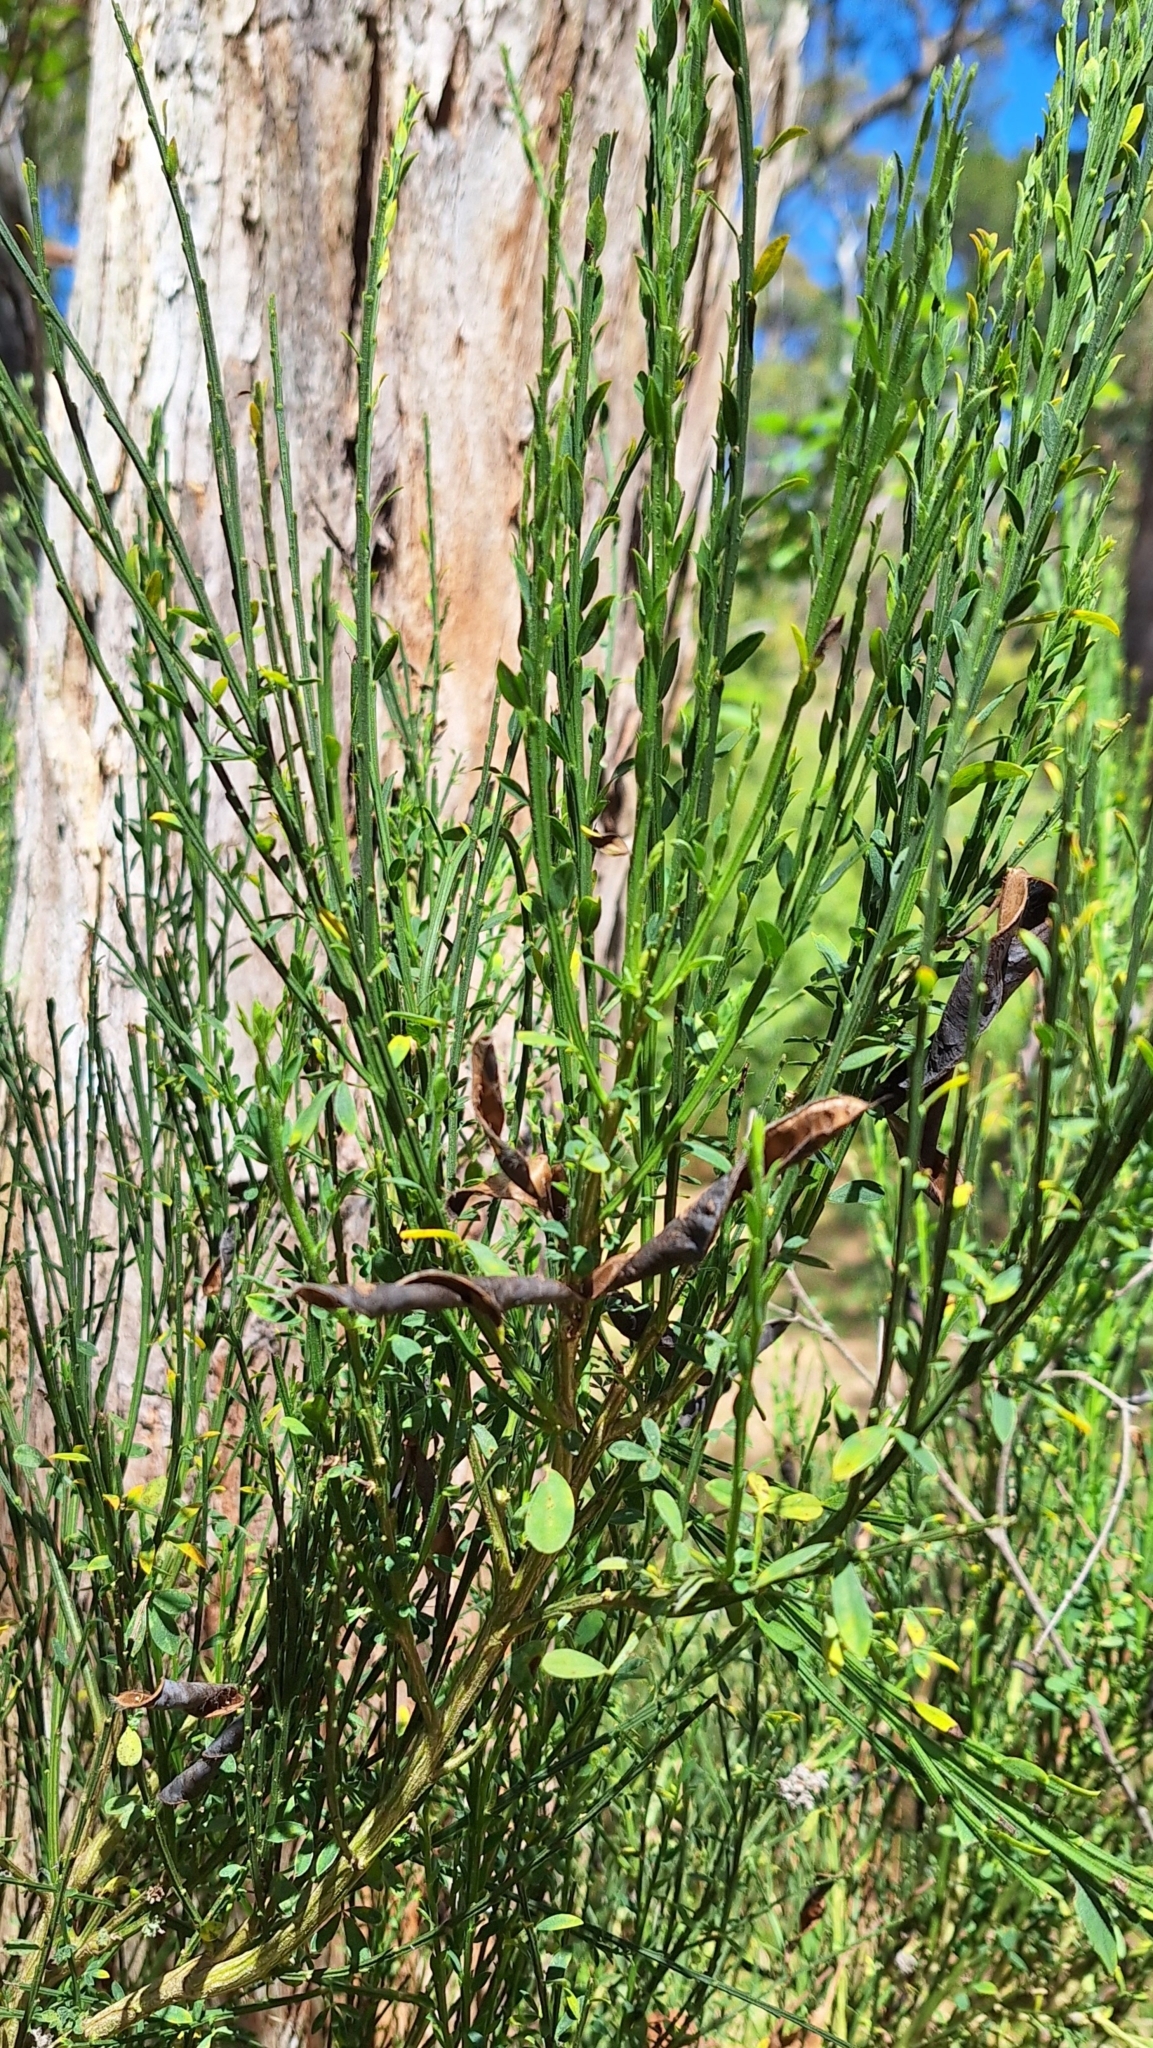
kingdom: Plantae
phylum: Tracheophyta
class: Magnoliopsida
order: Fabales
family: Fabaceae
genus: Cytisus
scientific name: Cytisus scoparius
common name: Scotch broom
